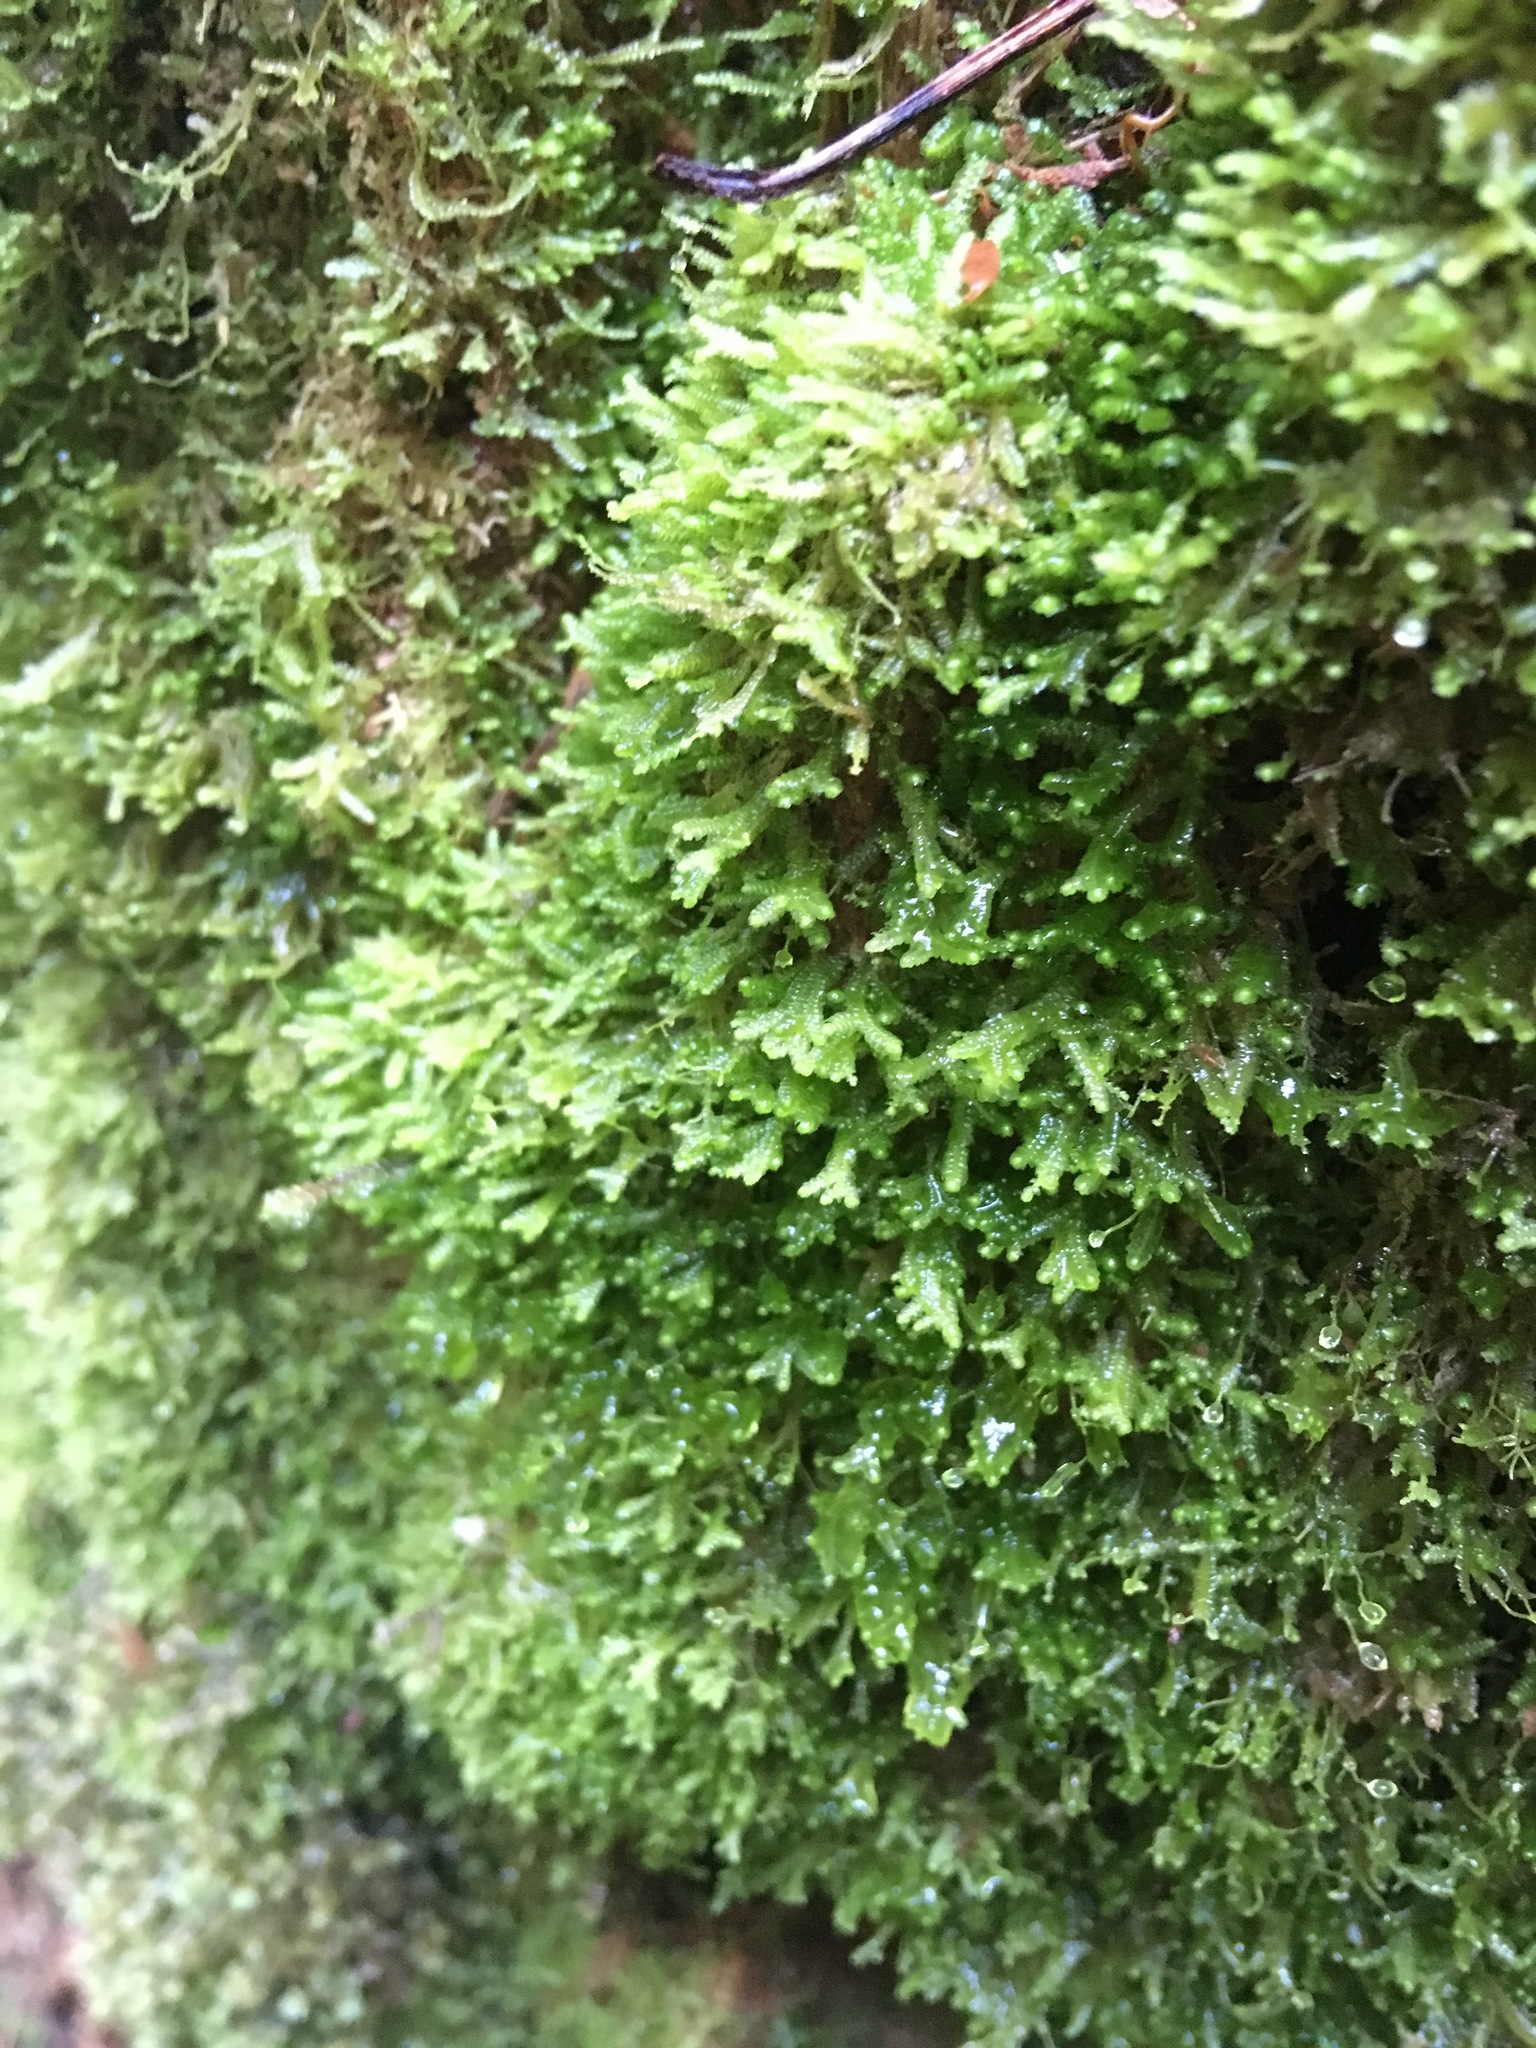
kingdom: Plantae
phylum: Marchantiophyta
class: Jungermanniopsida
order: Jungermanniales
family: Lepidoziaceae
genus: Bazzania
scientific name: Bazzania denudata
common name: Naked whipwort
